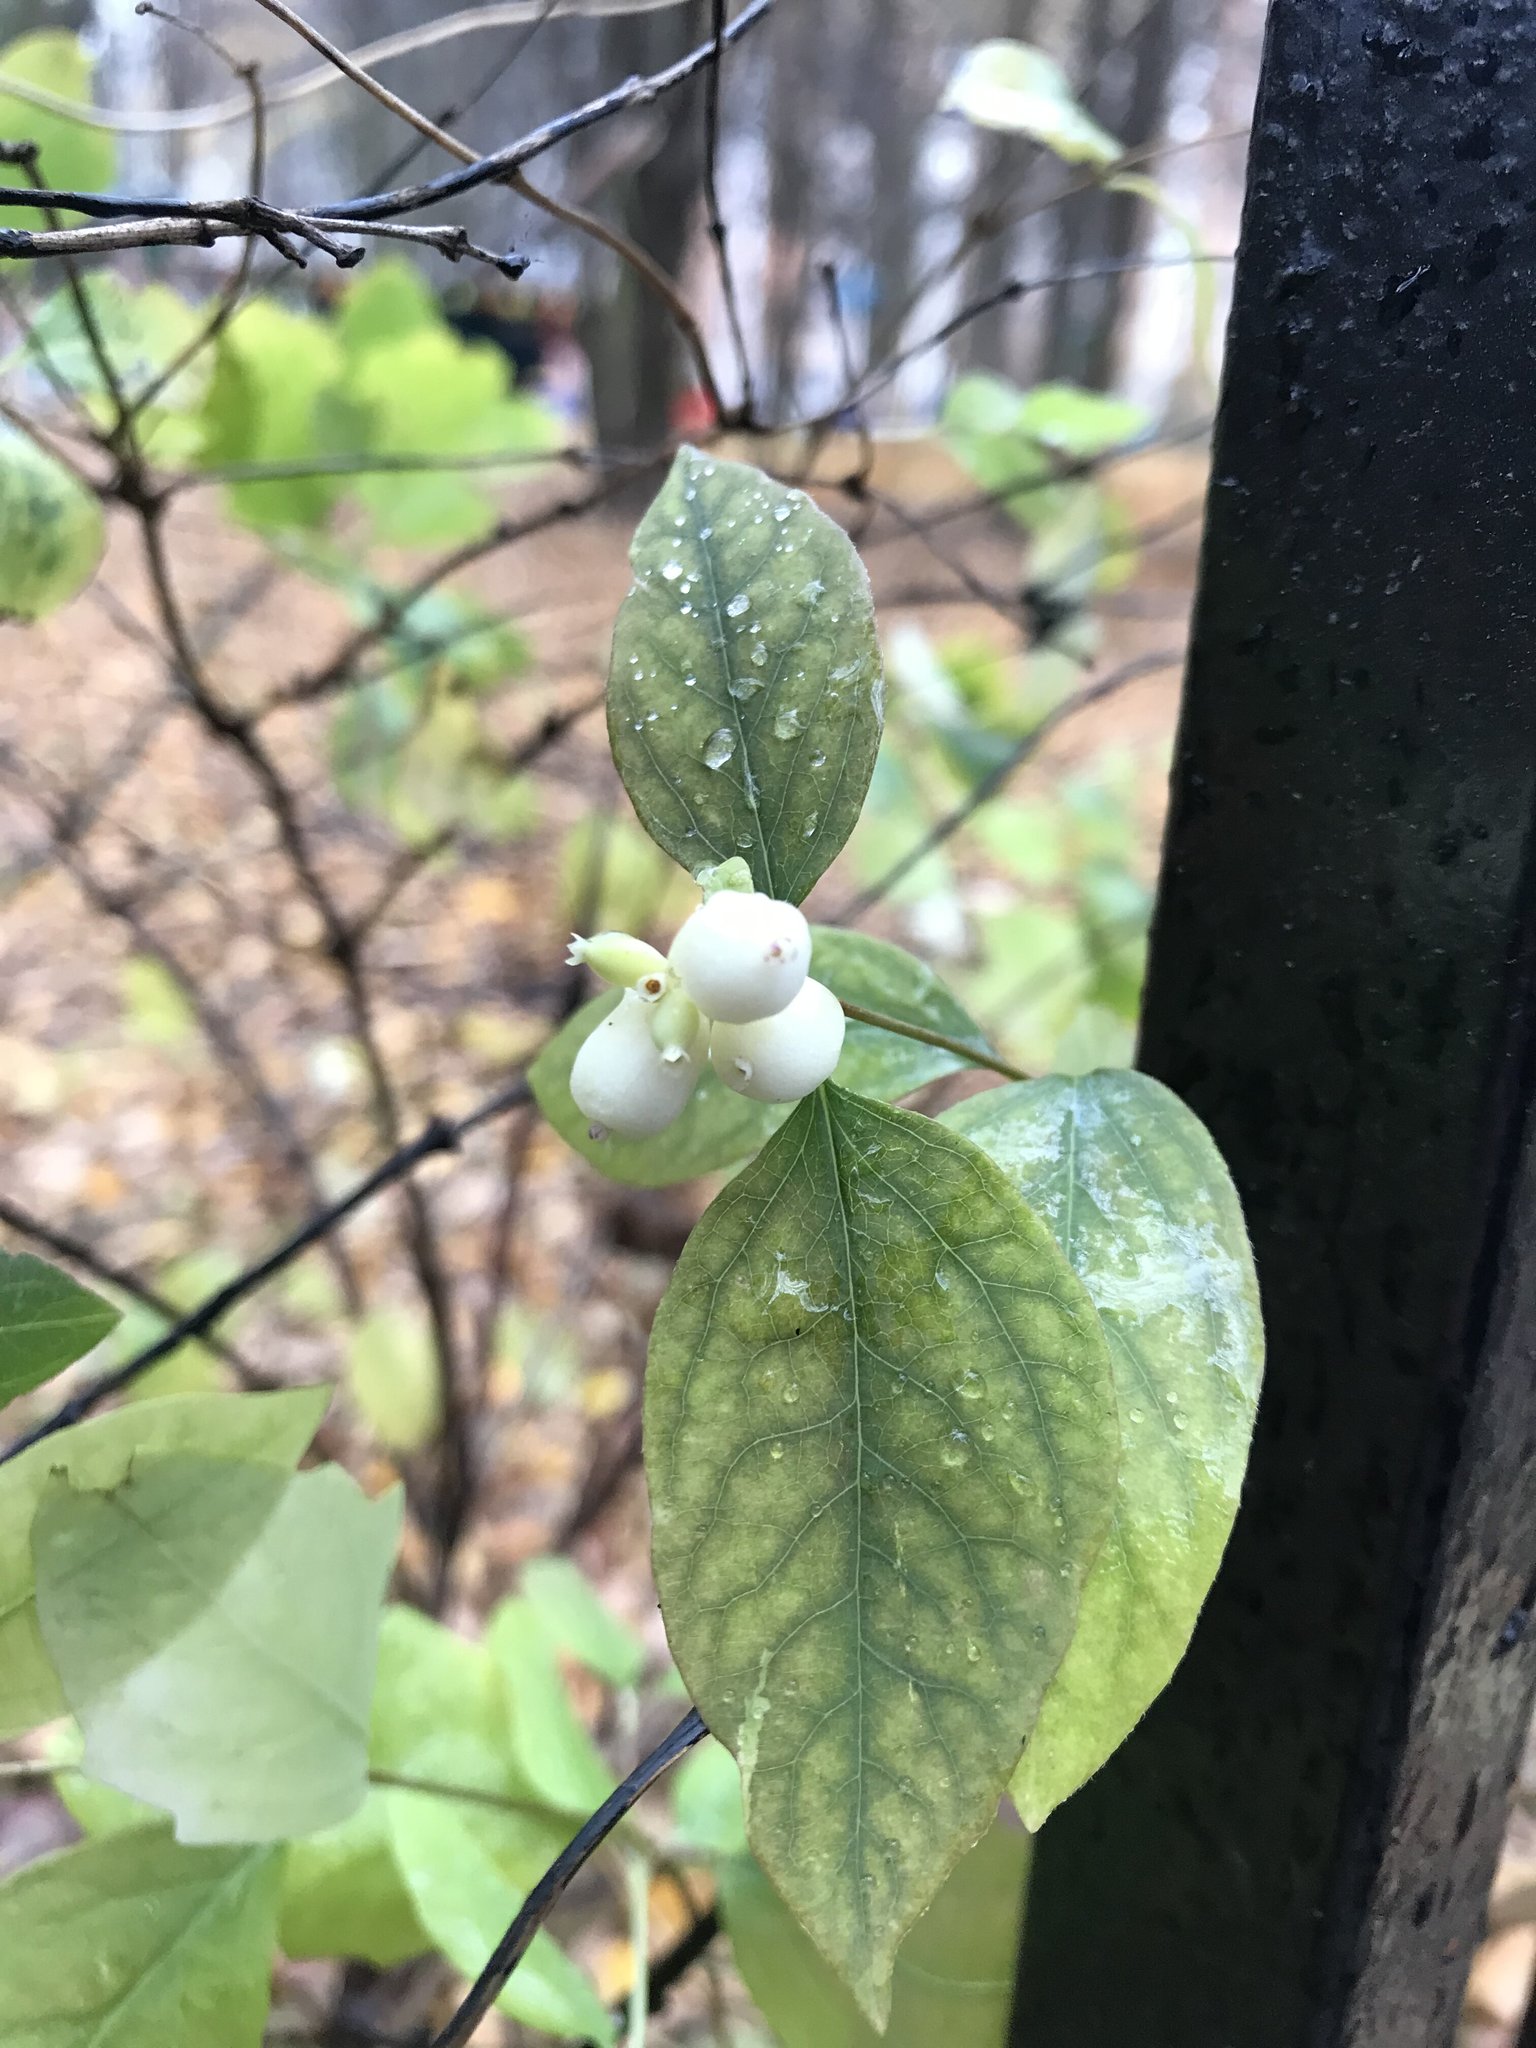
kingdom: Plantae
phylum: Tracheophyta
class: Magnoliopsida
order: Dipsacales
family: Caprifoliaceae
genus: Symphoricarpos
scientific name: Symphoricarpos albus
